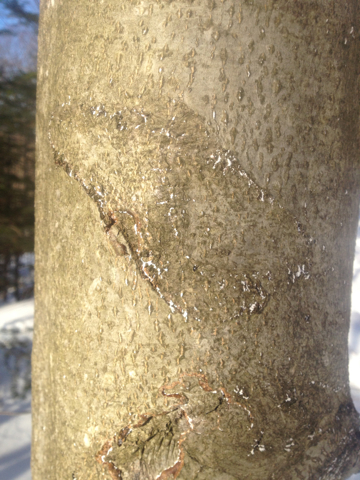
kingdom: Plantae
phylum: Tracheophyta
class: Magnoliopsida
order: Fagales
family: Fagaceae
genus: Fagus
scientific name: Fagus grandifolia
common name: American beech
